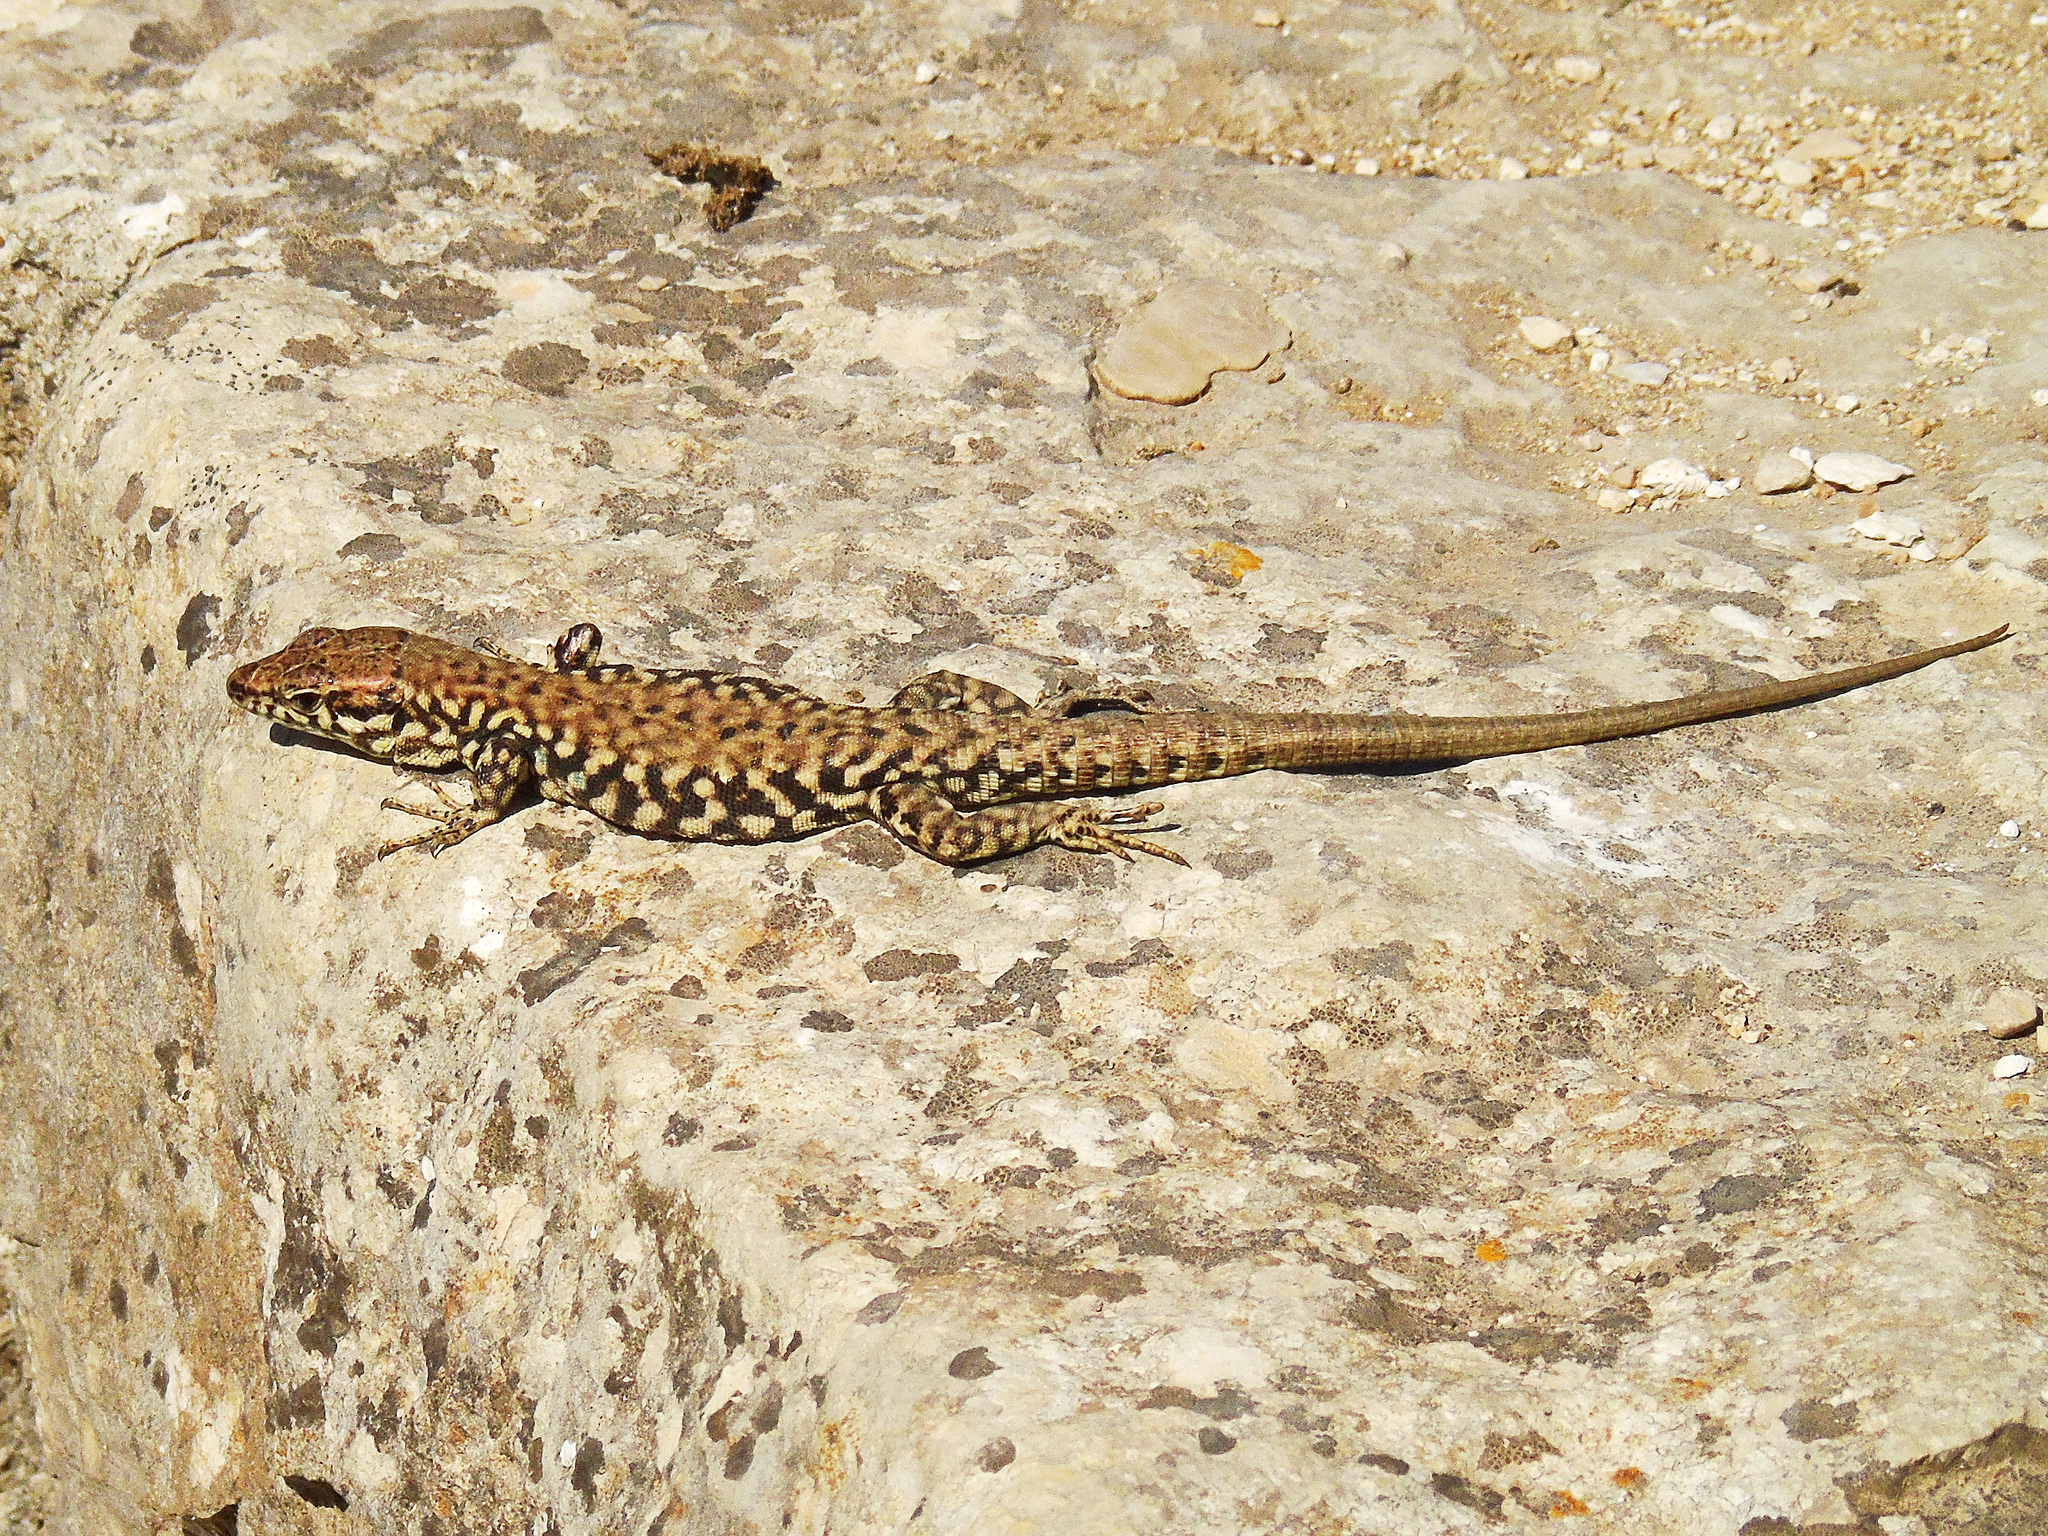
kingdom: Animalia
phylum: Chordata
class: Squamata
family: Lacertidae
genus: Podarcis
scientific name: Podarcis muralis
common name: Common wall lizard
